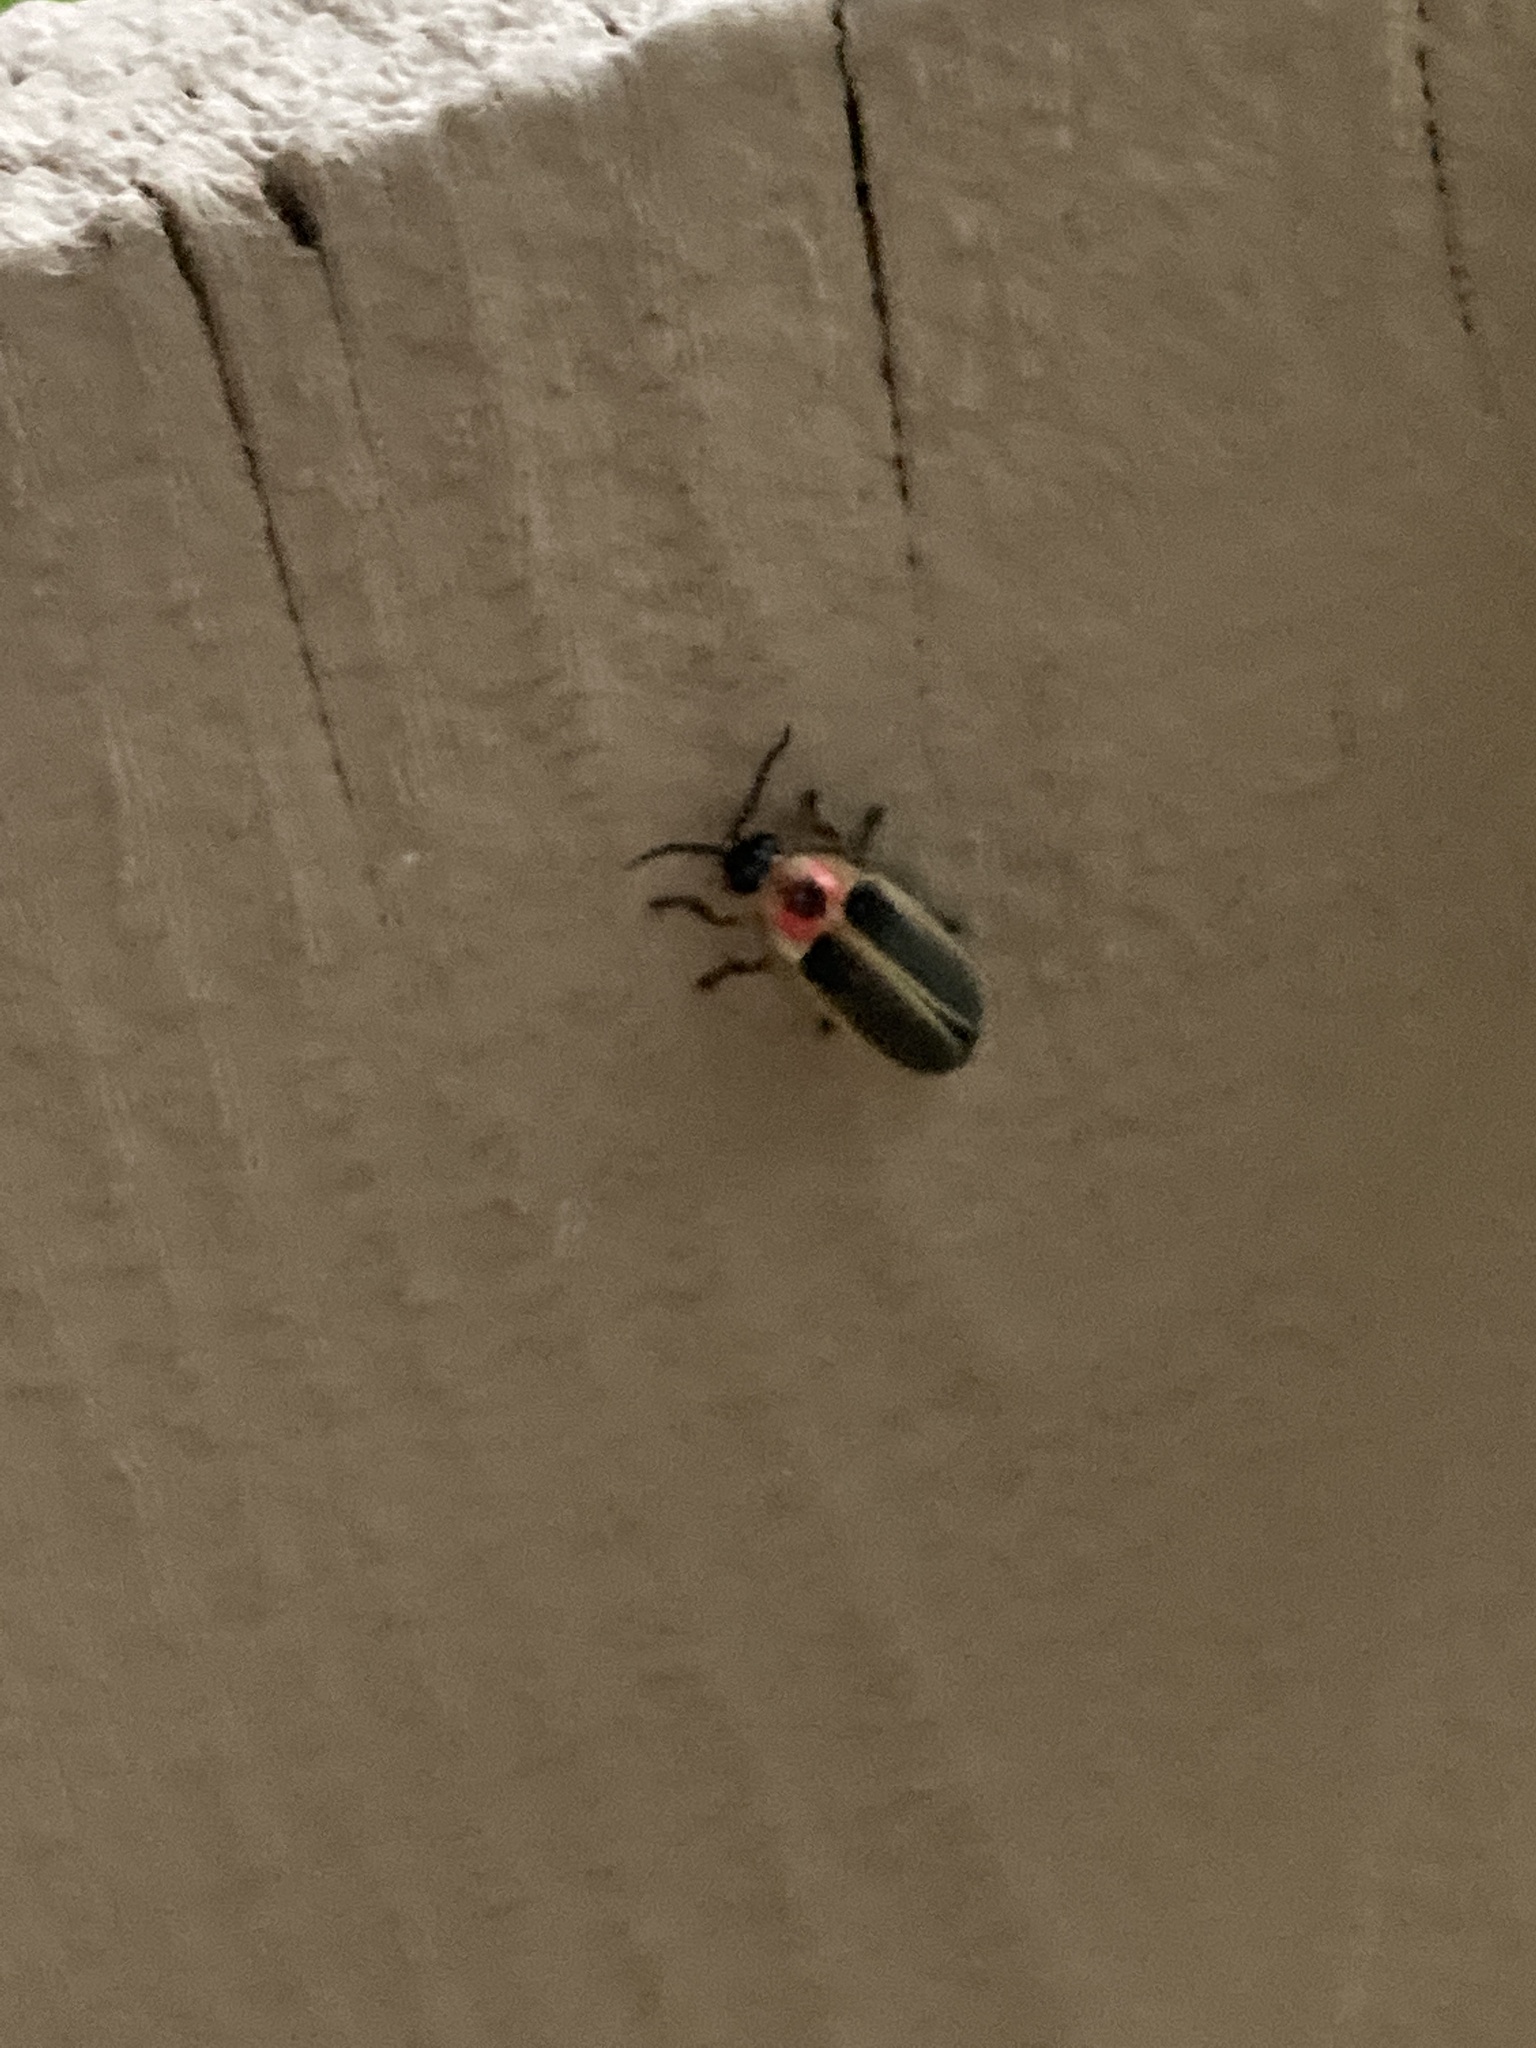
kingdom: Animalia
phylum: Arthropoda
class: Insecta
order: Coleoptera
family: Lampyridae
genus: Photinus
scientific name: Photinus pyralis
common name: Big dipper firefly
